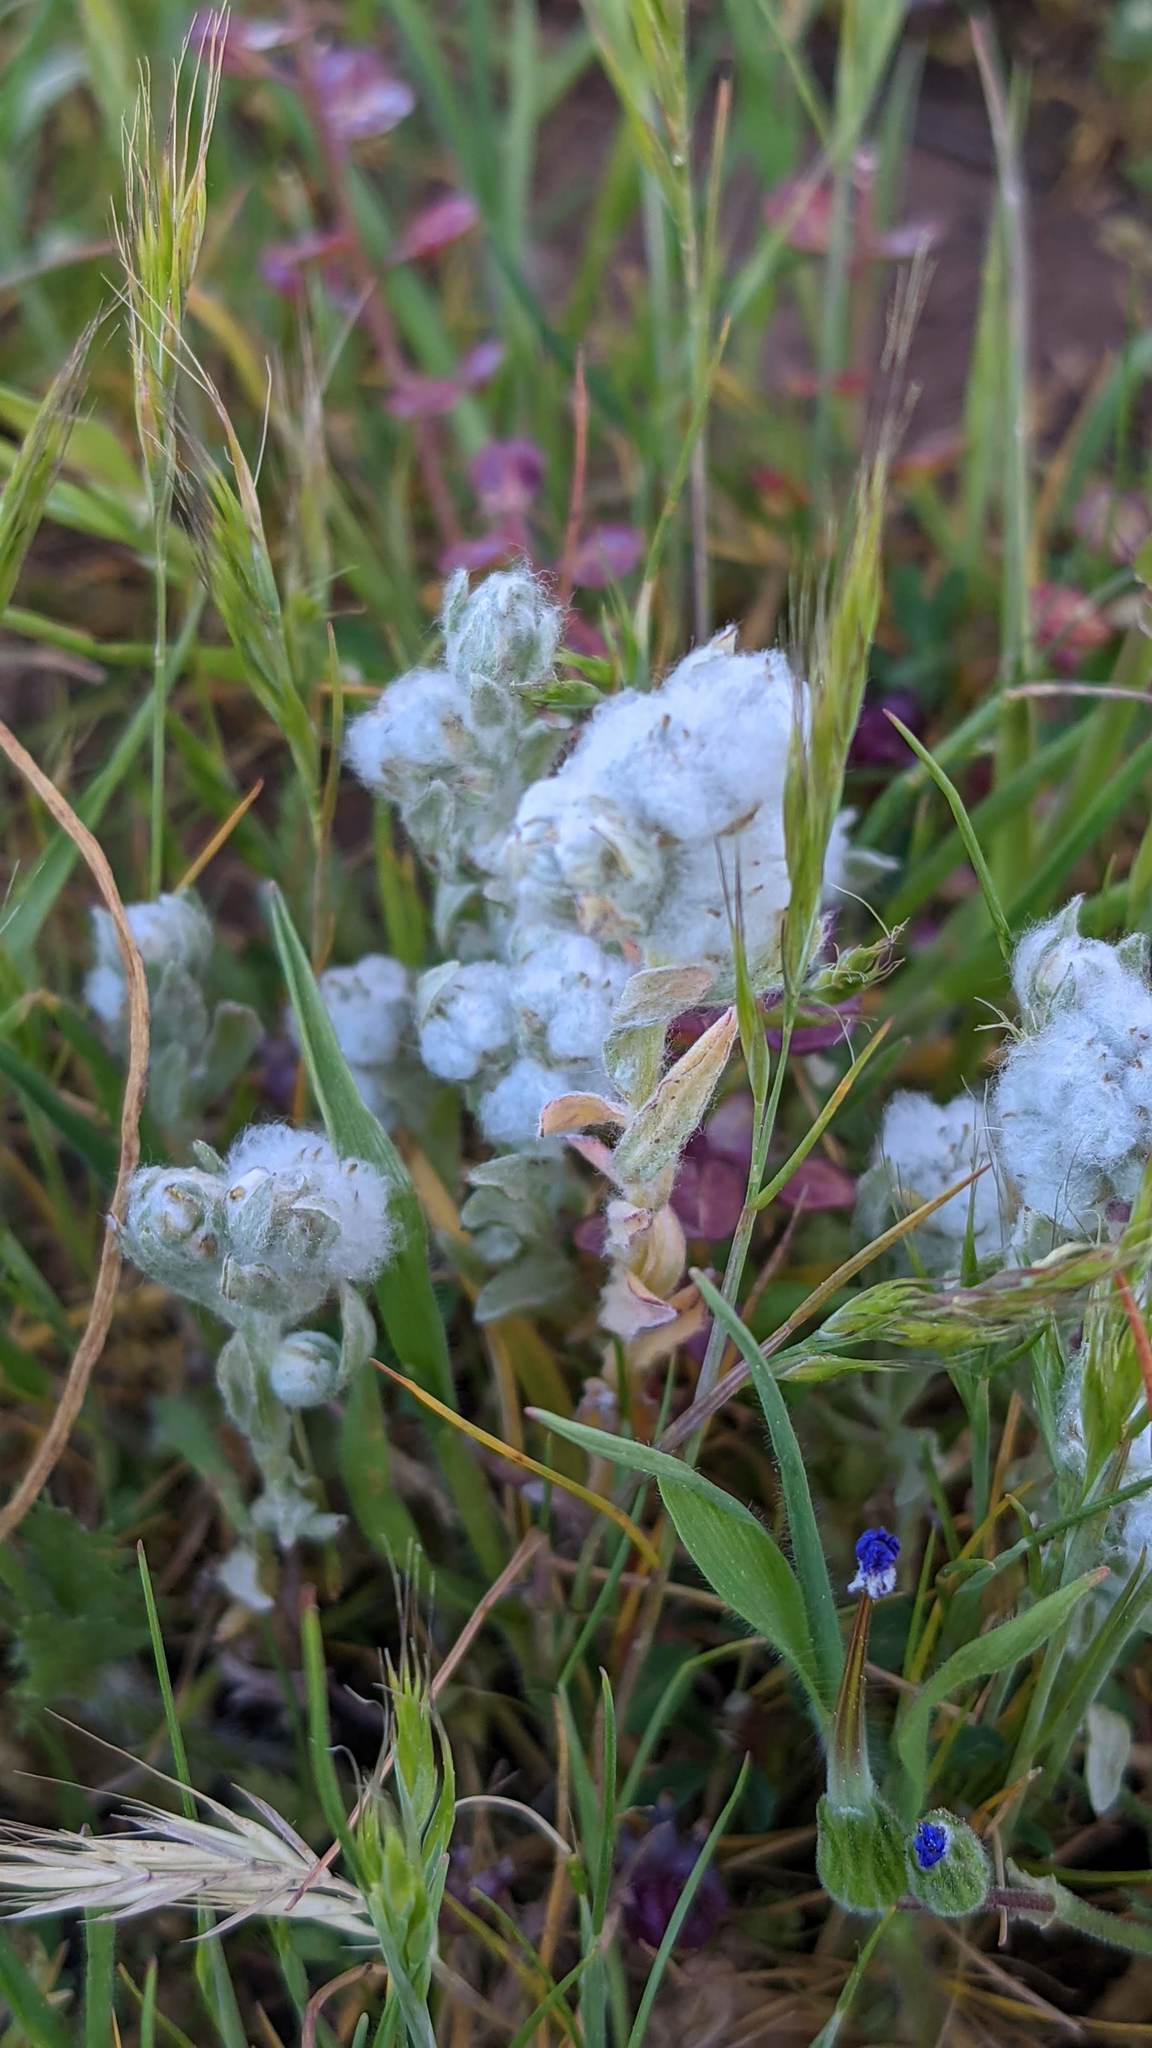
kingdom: Plantae
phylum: Tracheophyta
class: Magnoliopsida
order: Asterales
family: Asteraceae
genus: Bombycilaena
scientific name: Bombycilaena californica
